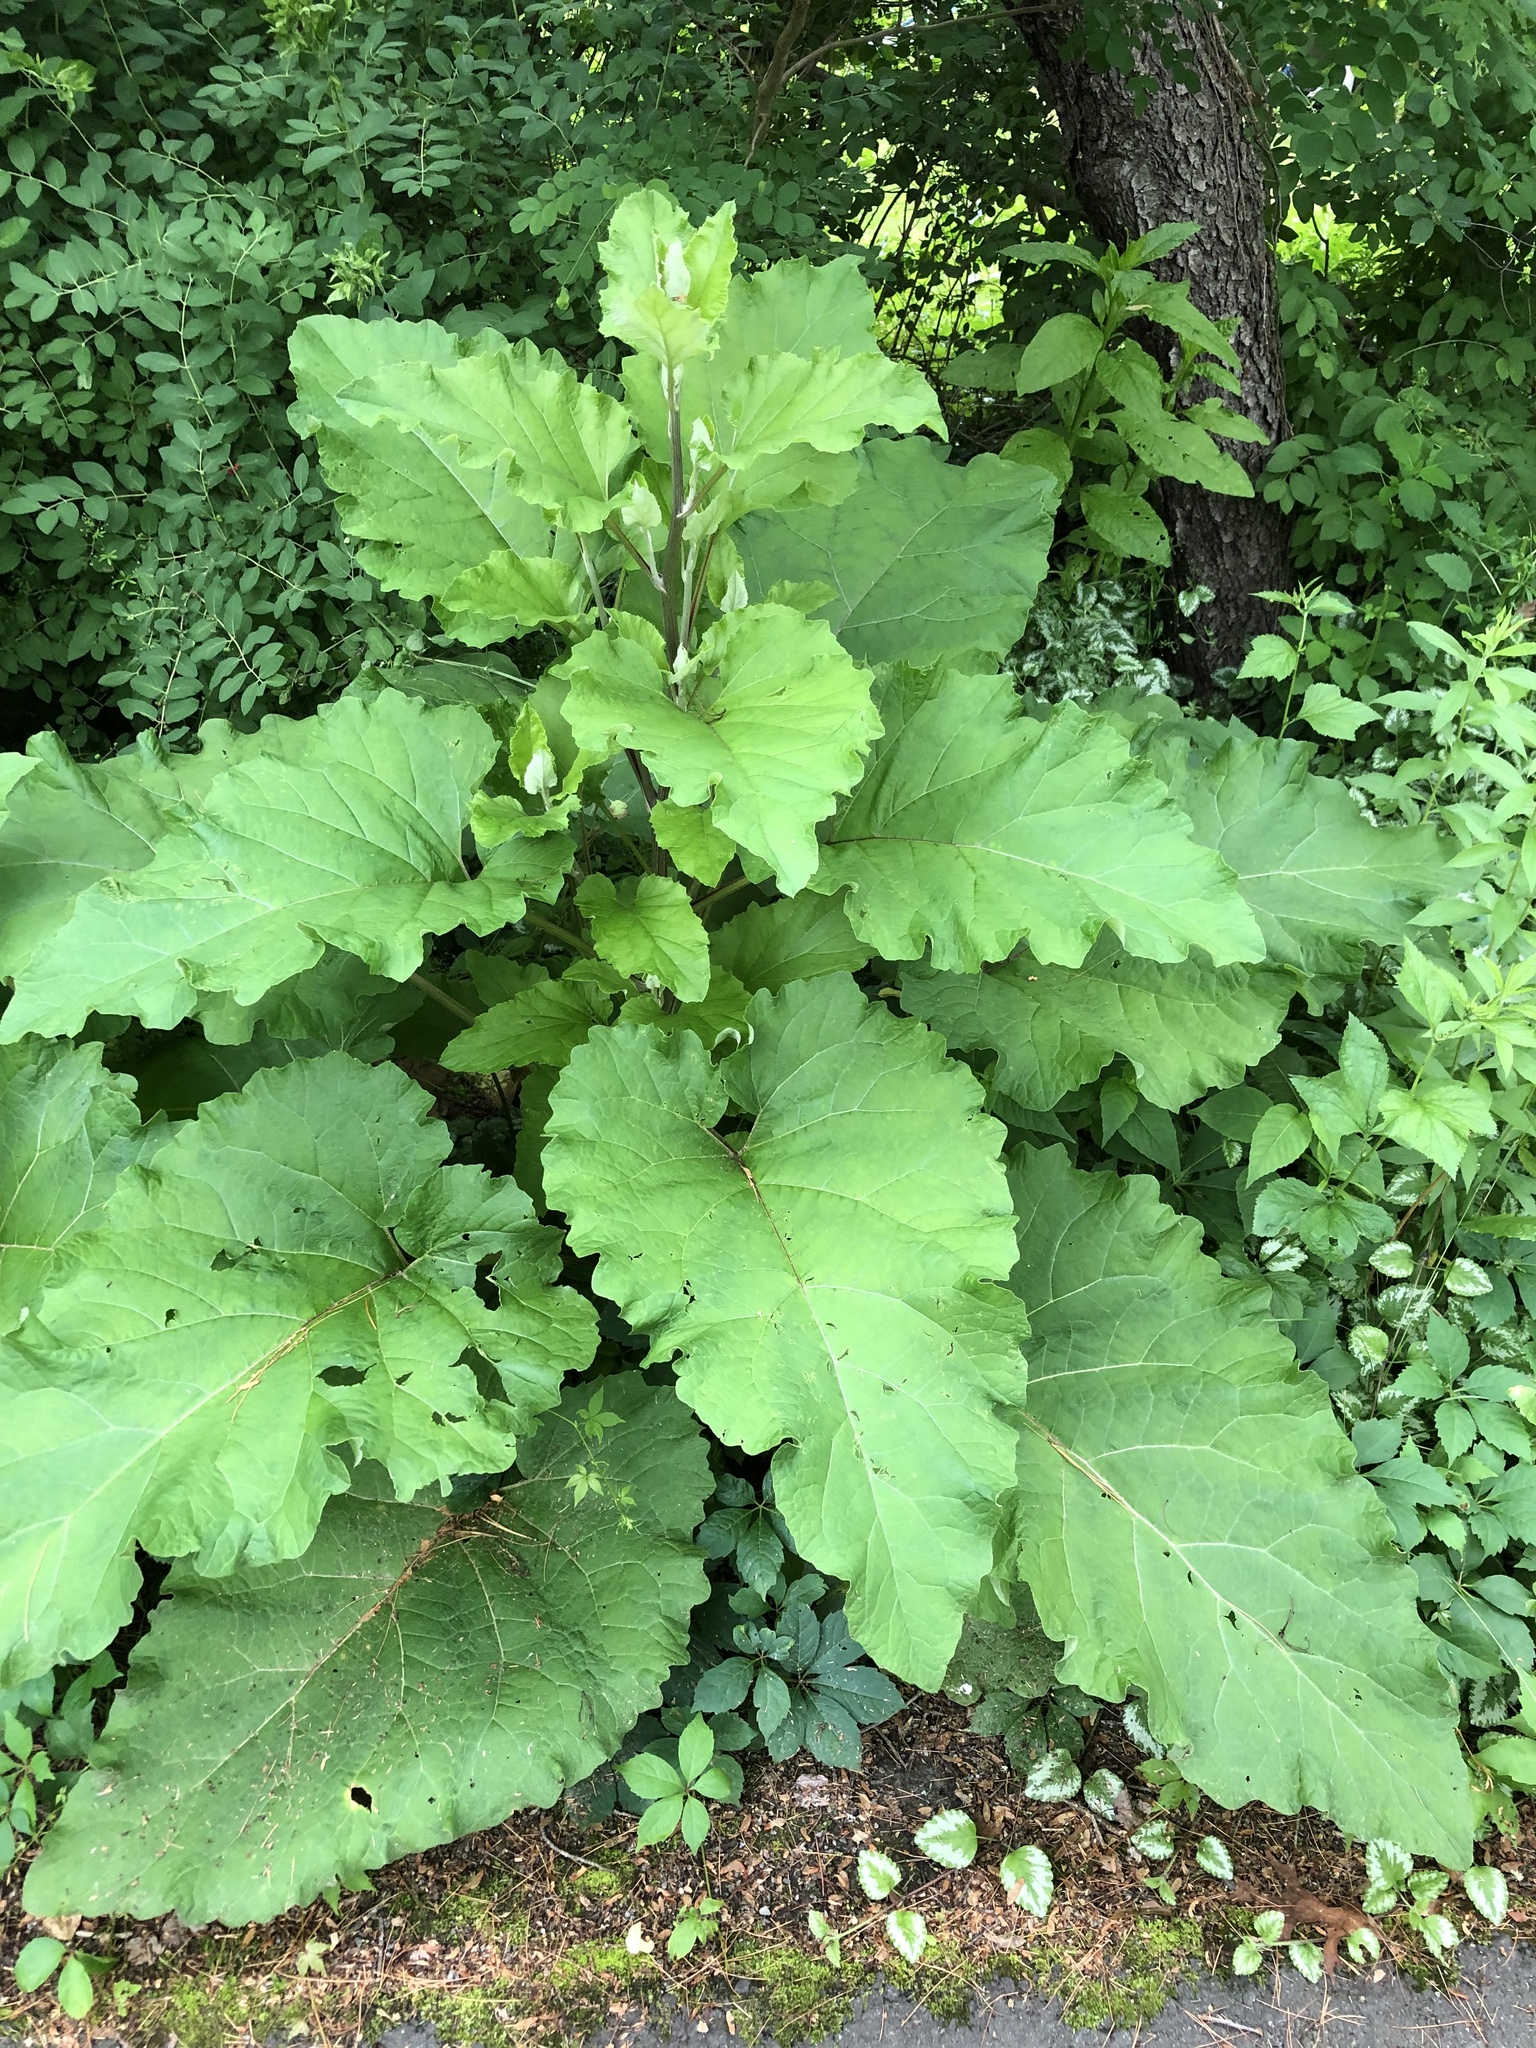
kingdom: Plantae
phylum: Tracheophyta
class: Magnoliopsida
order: Asterales
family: Asteraceae
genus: Arctium
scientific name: Arctium
